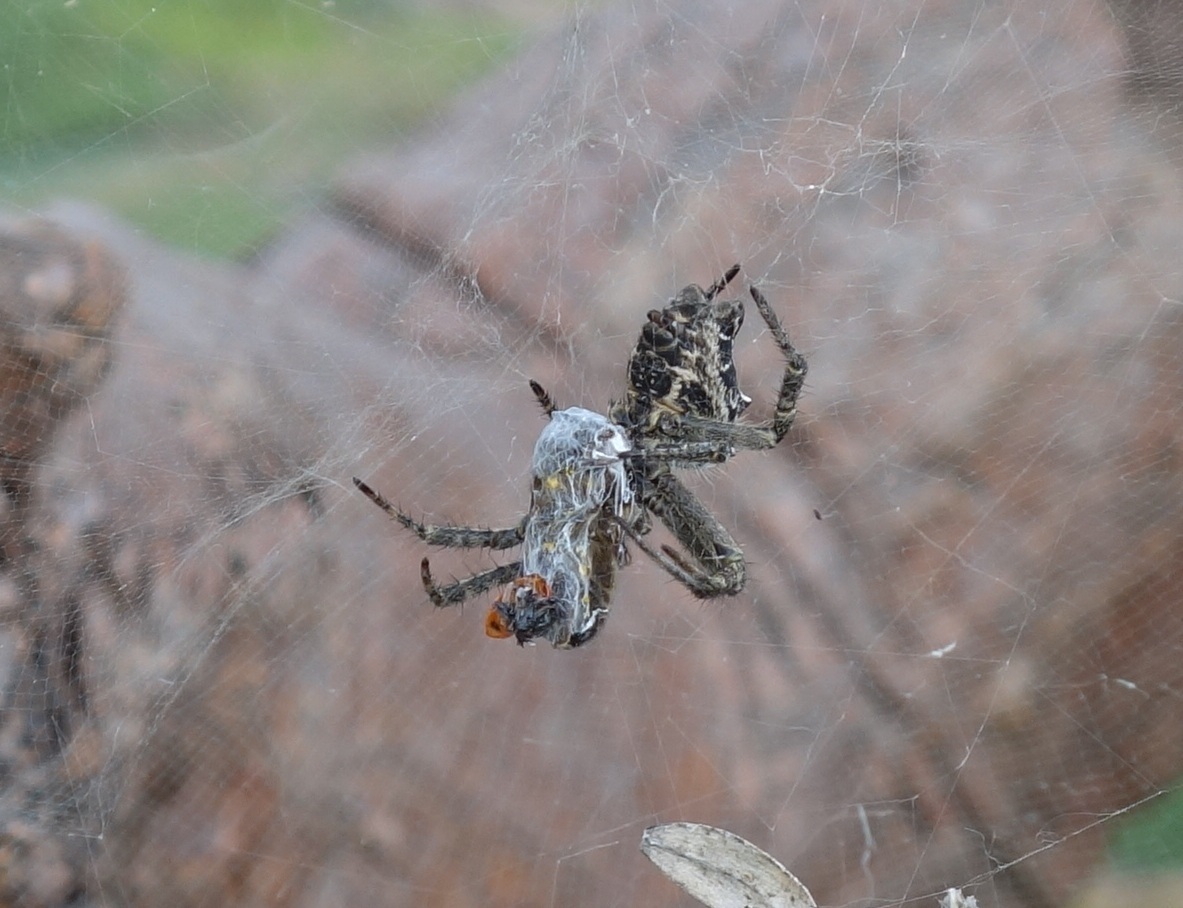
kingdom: Animalia
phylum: Arthropoda
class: Arachnida
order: Araneae
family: Araneidae
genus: Cyrtophora
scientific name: Cyrtophora citricola
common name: Orb weavers
